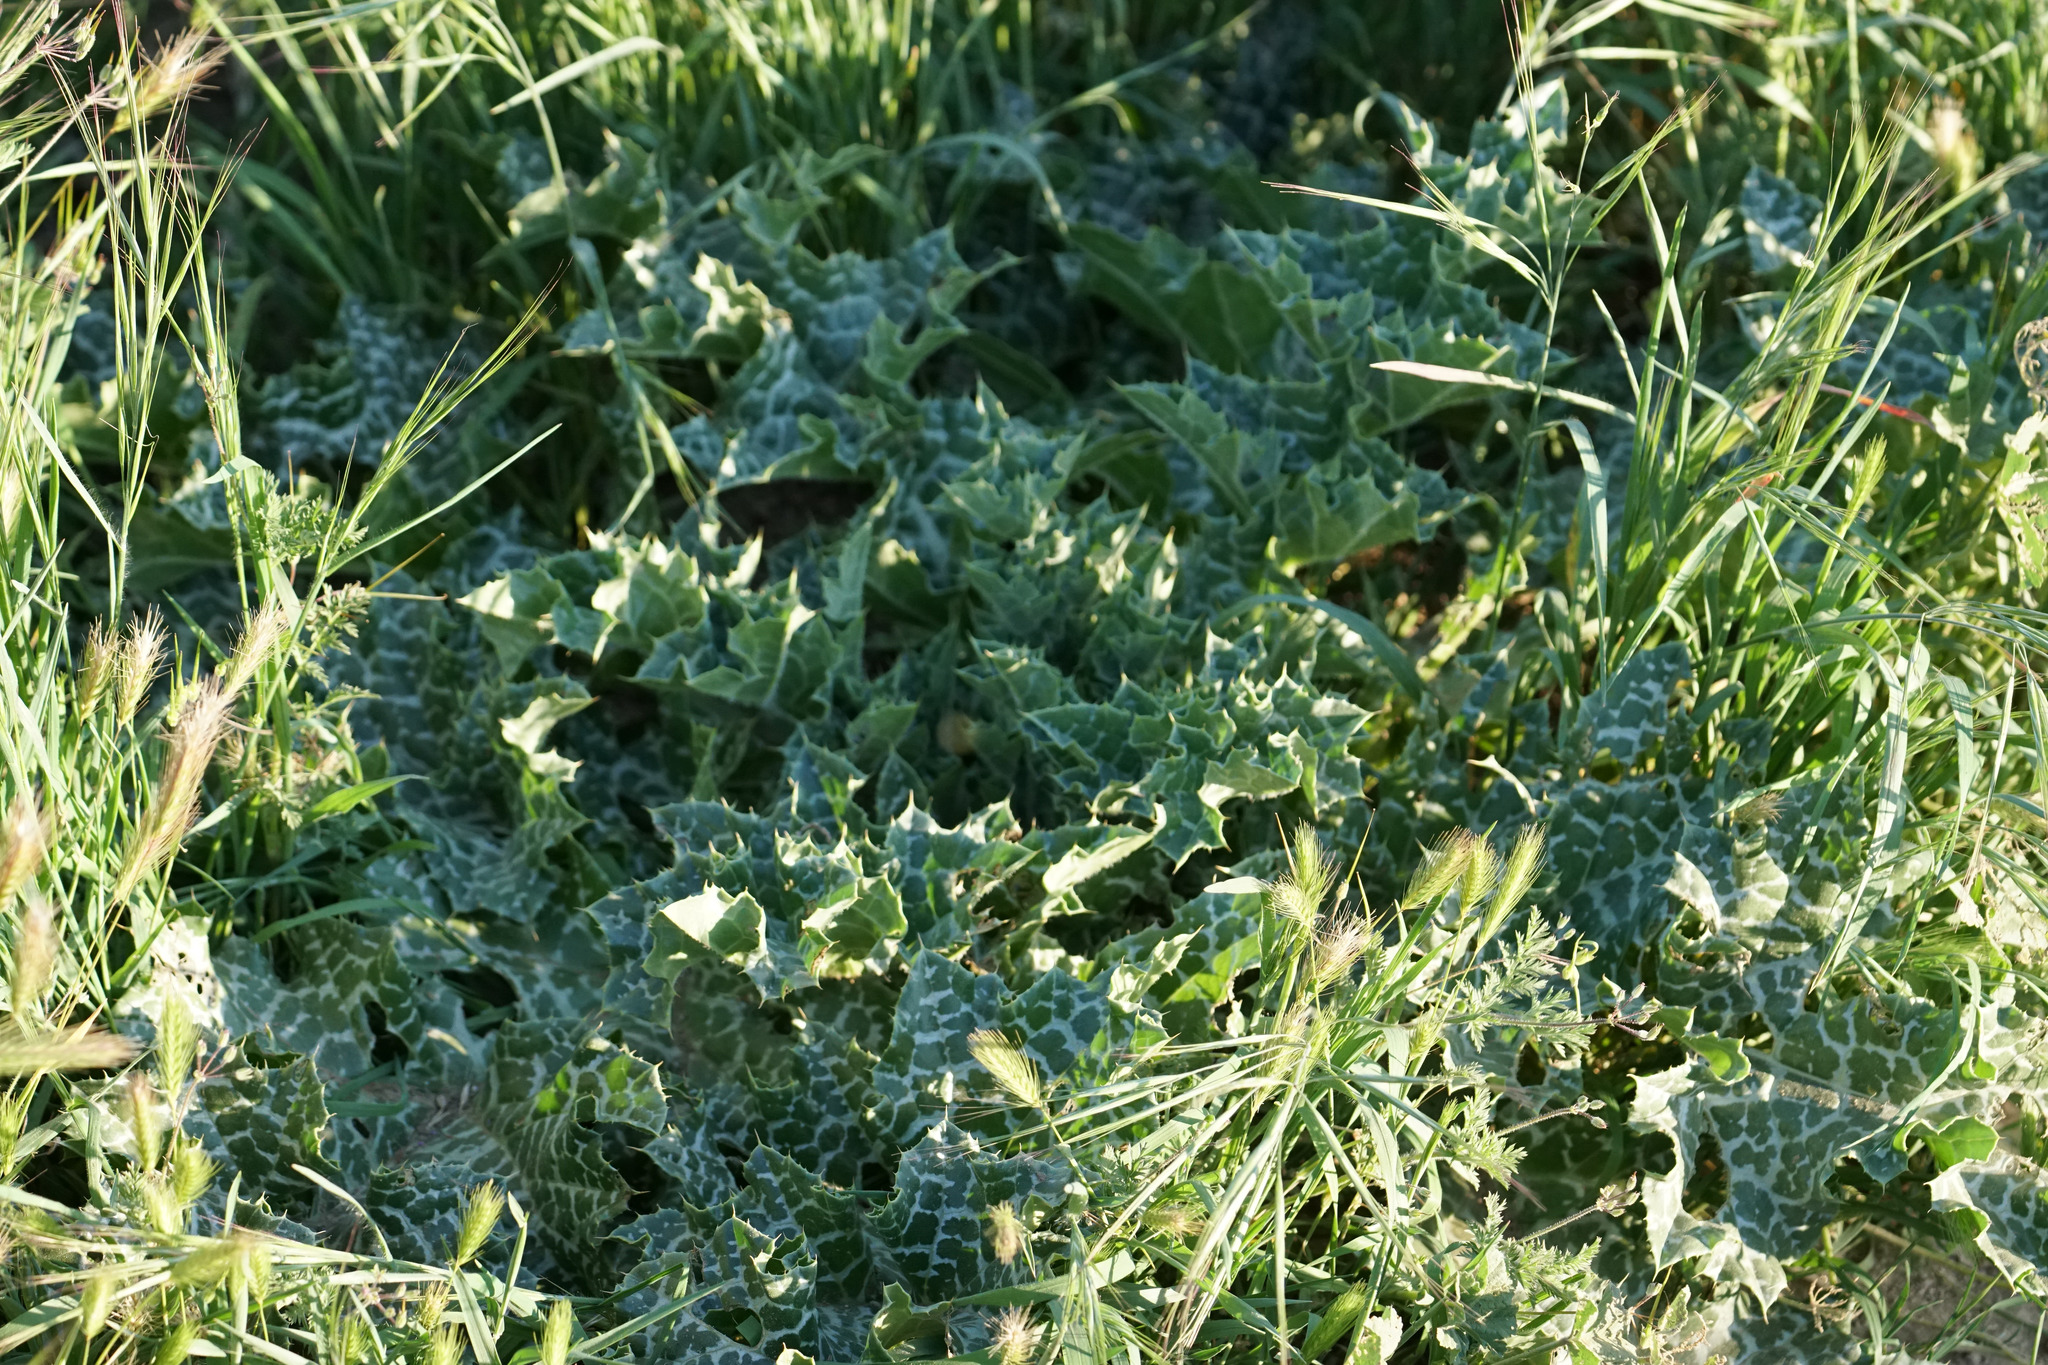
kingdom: Plantae
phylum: Tracheophyta
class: Magnoliopsida
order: Asterales
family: Asteraceae
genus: Silybum
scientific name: Silybum marianum
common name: Milk thistle
